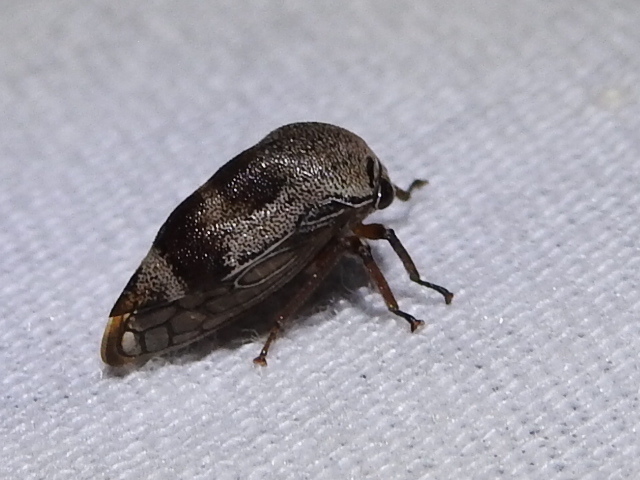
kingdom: Animalia
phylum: Arthropoda
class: Insecta
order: Hemiptera
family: Membracidae
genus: Xantholobus
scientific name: Xantholobus nigrocincta
